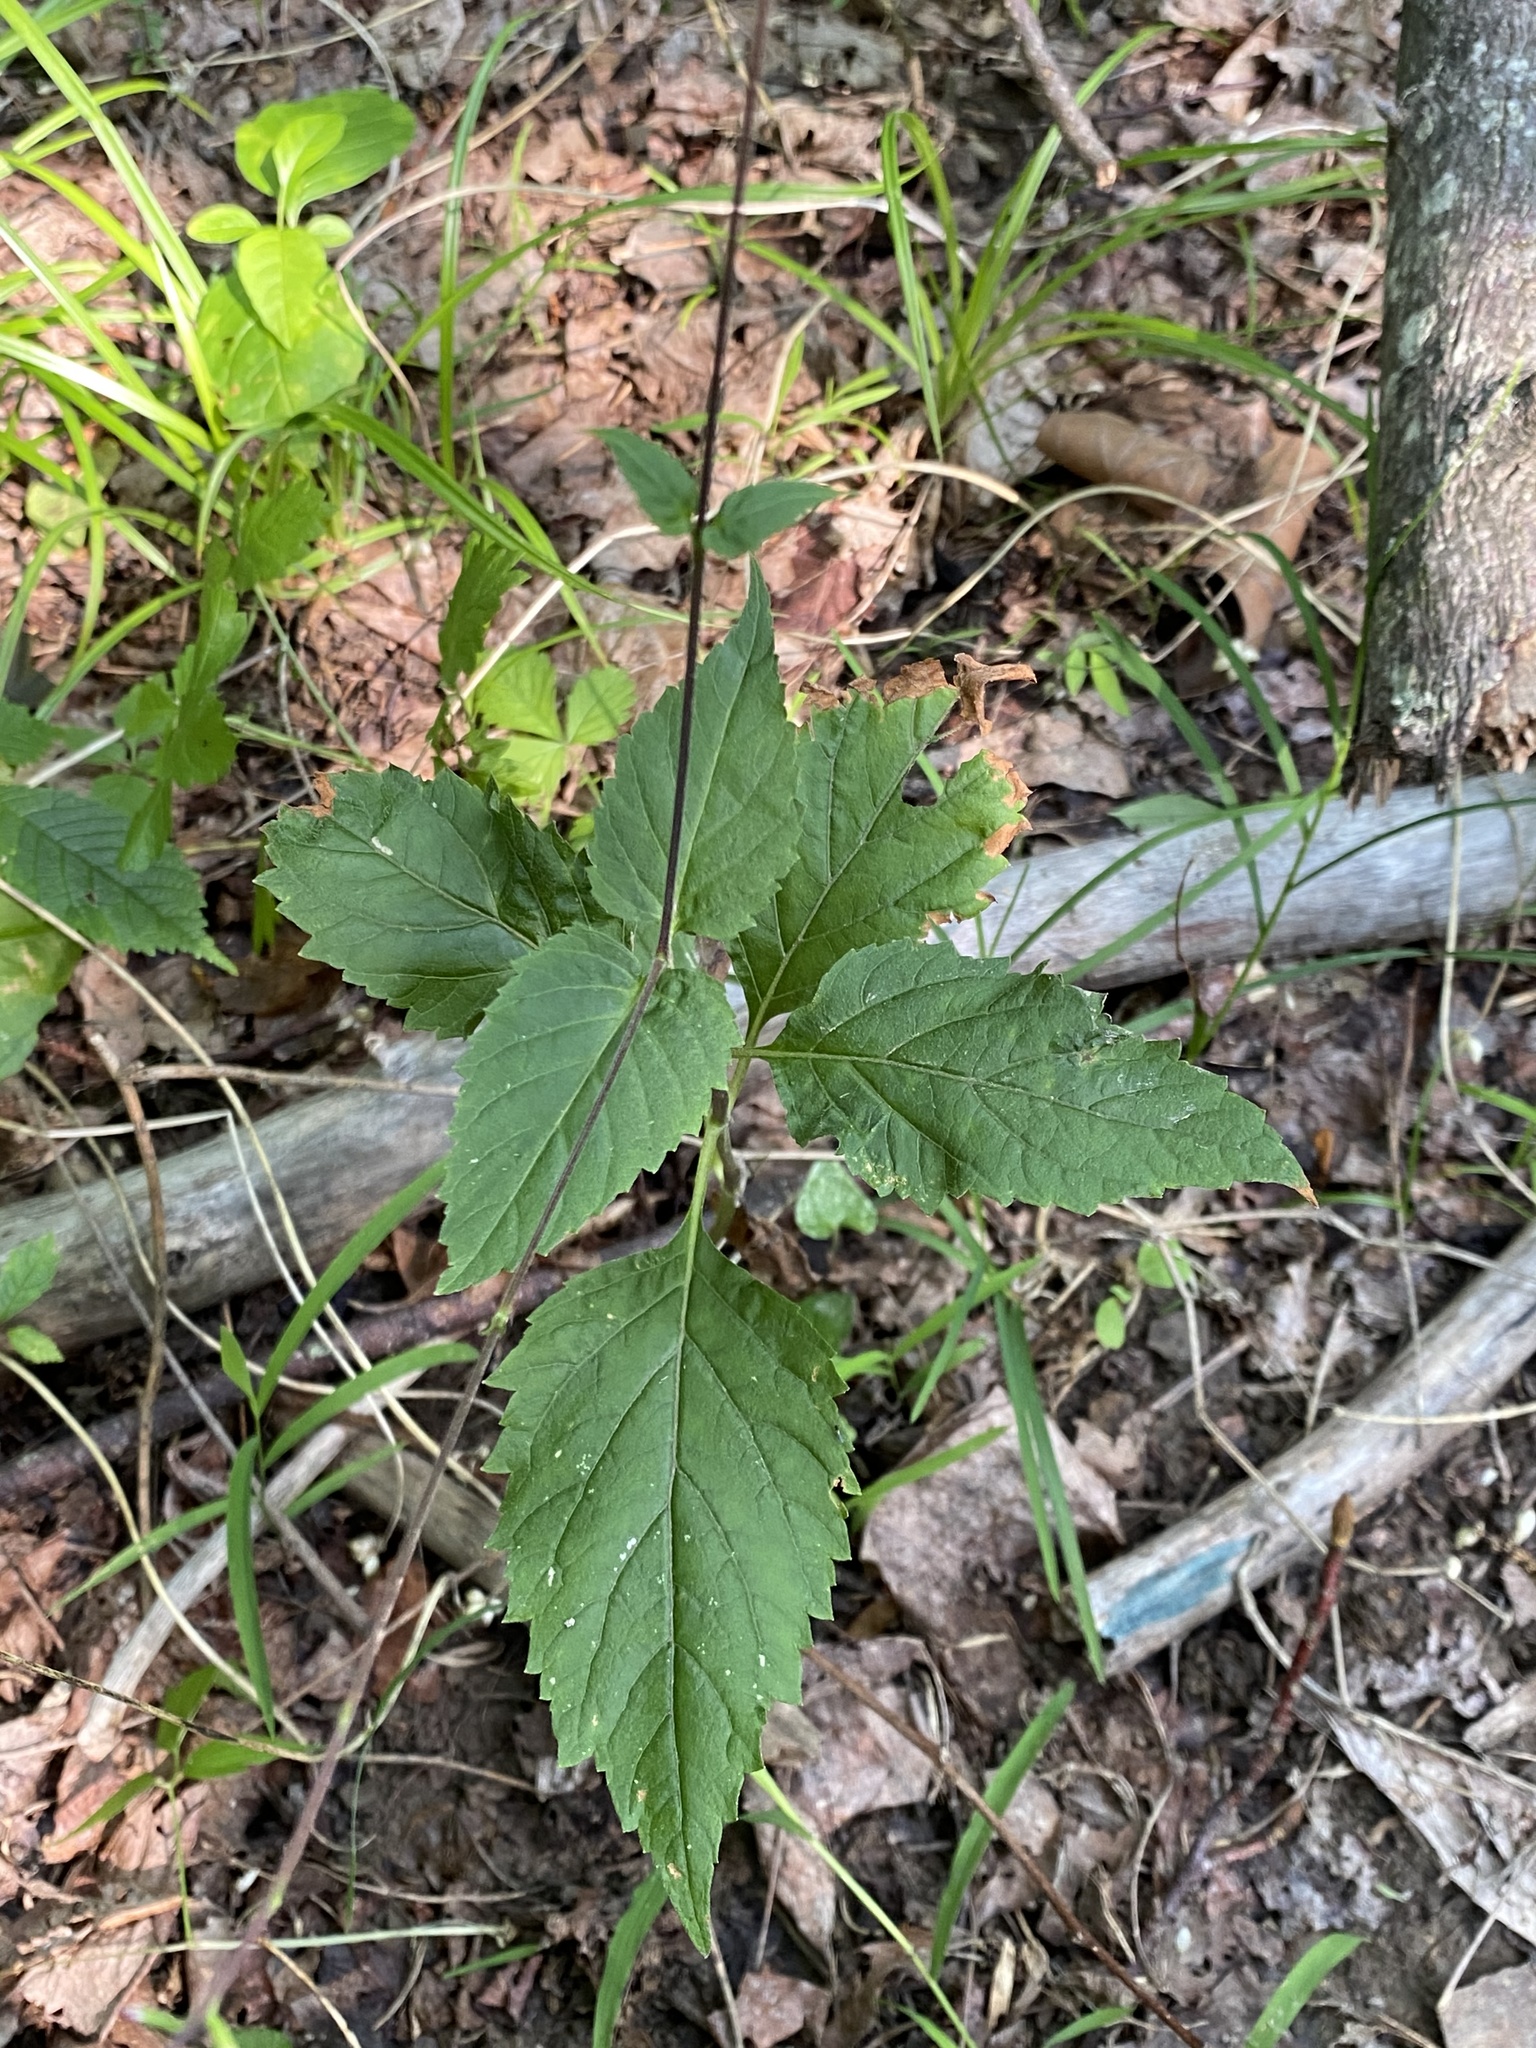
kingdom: Plantae
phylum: Tracheophyta
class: Magnoliopsida
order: Lamiales
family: Phrymaceae
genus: Phryma
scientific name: Phryma leptostachya
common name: American lopseed
